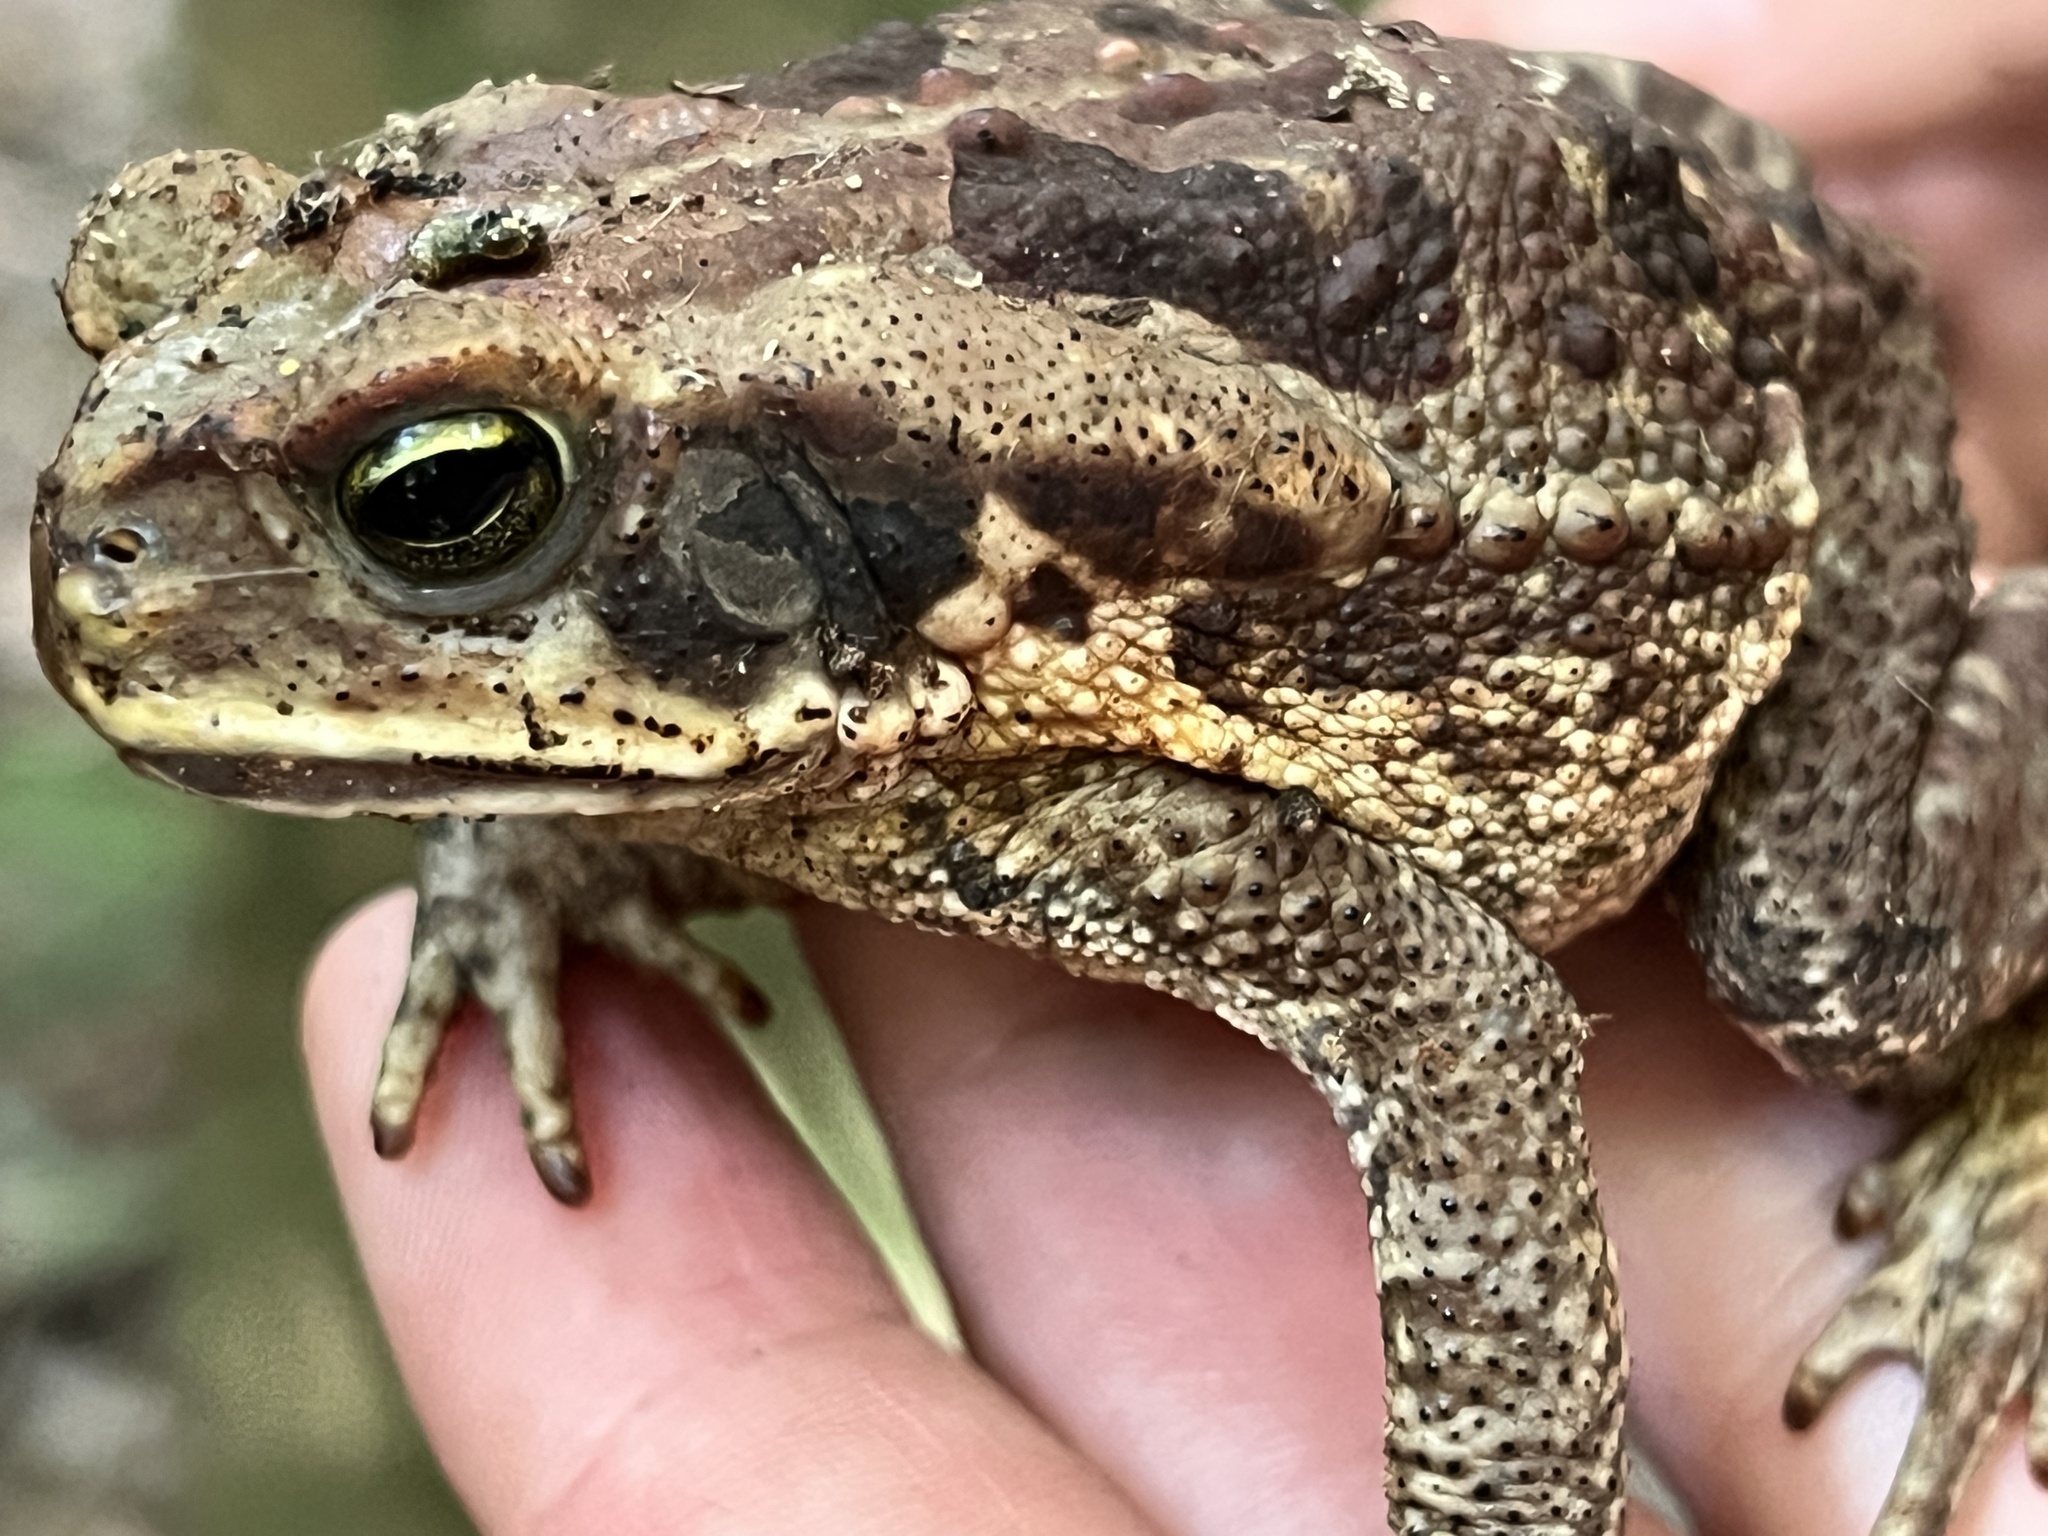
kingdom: Animalia
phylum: Chordata
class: Amphibia
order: Anura
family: Bufonidae
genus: Rhinella
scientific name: Rhinella diptycha
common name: Cope's toad
